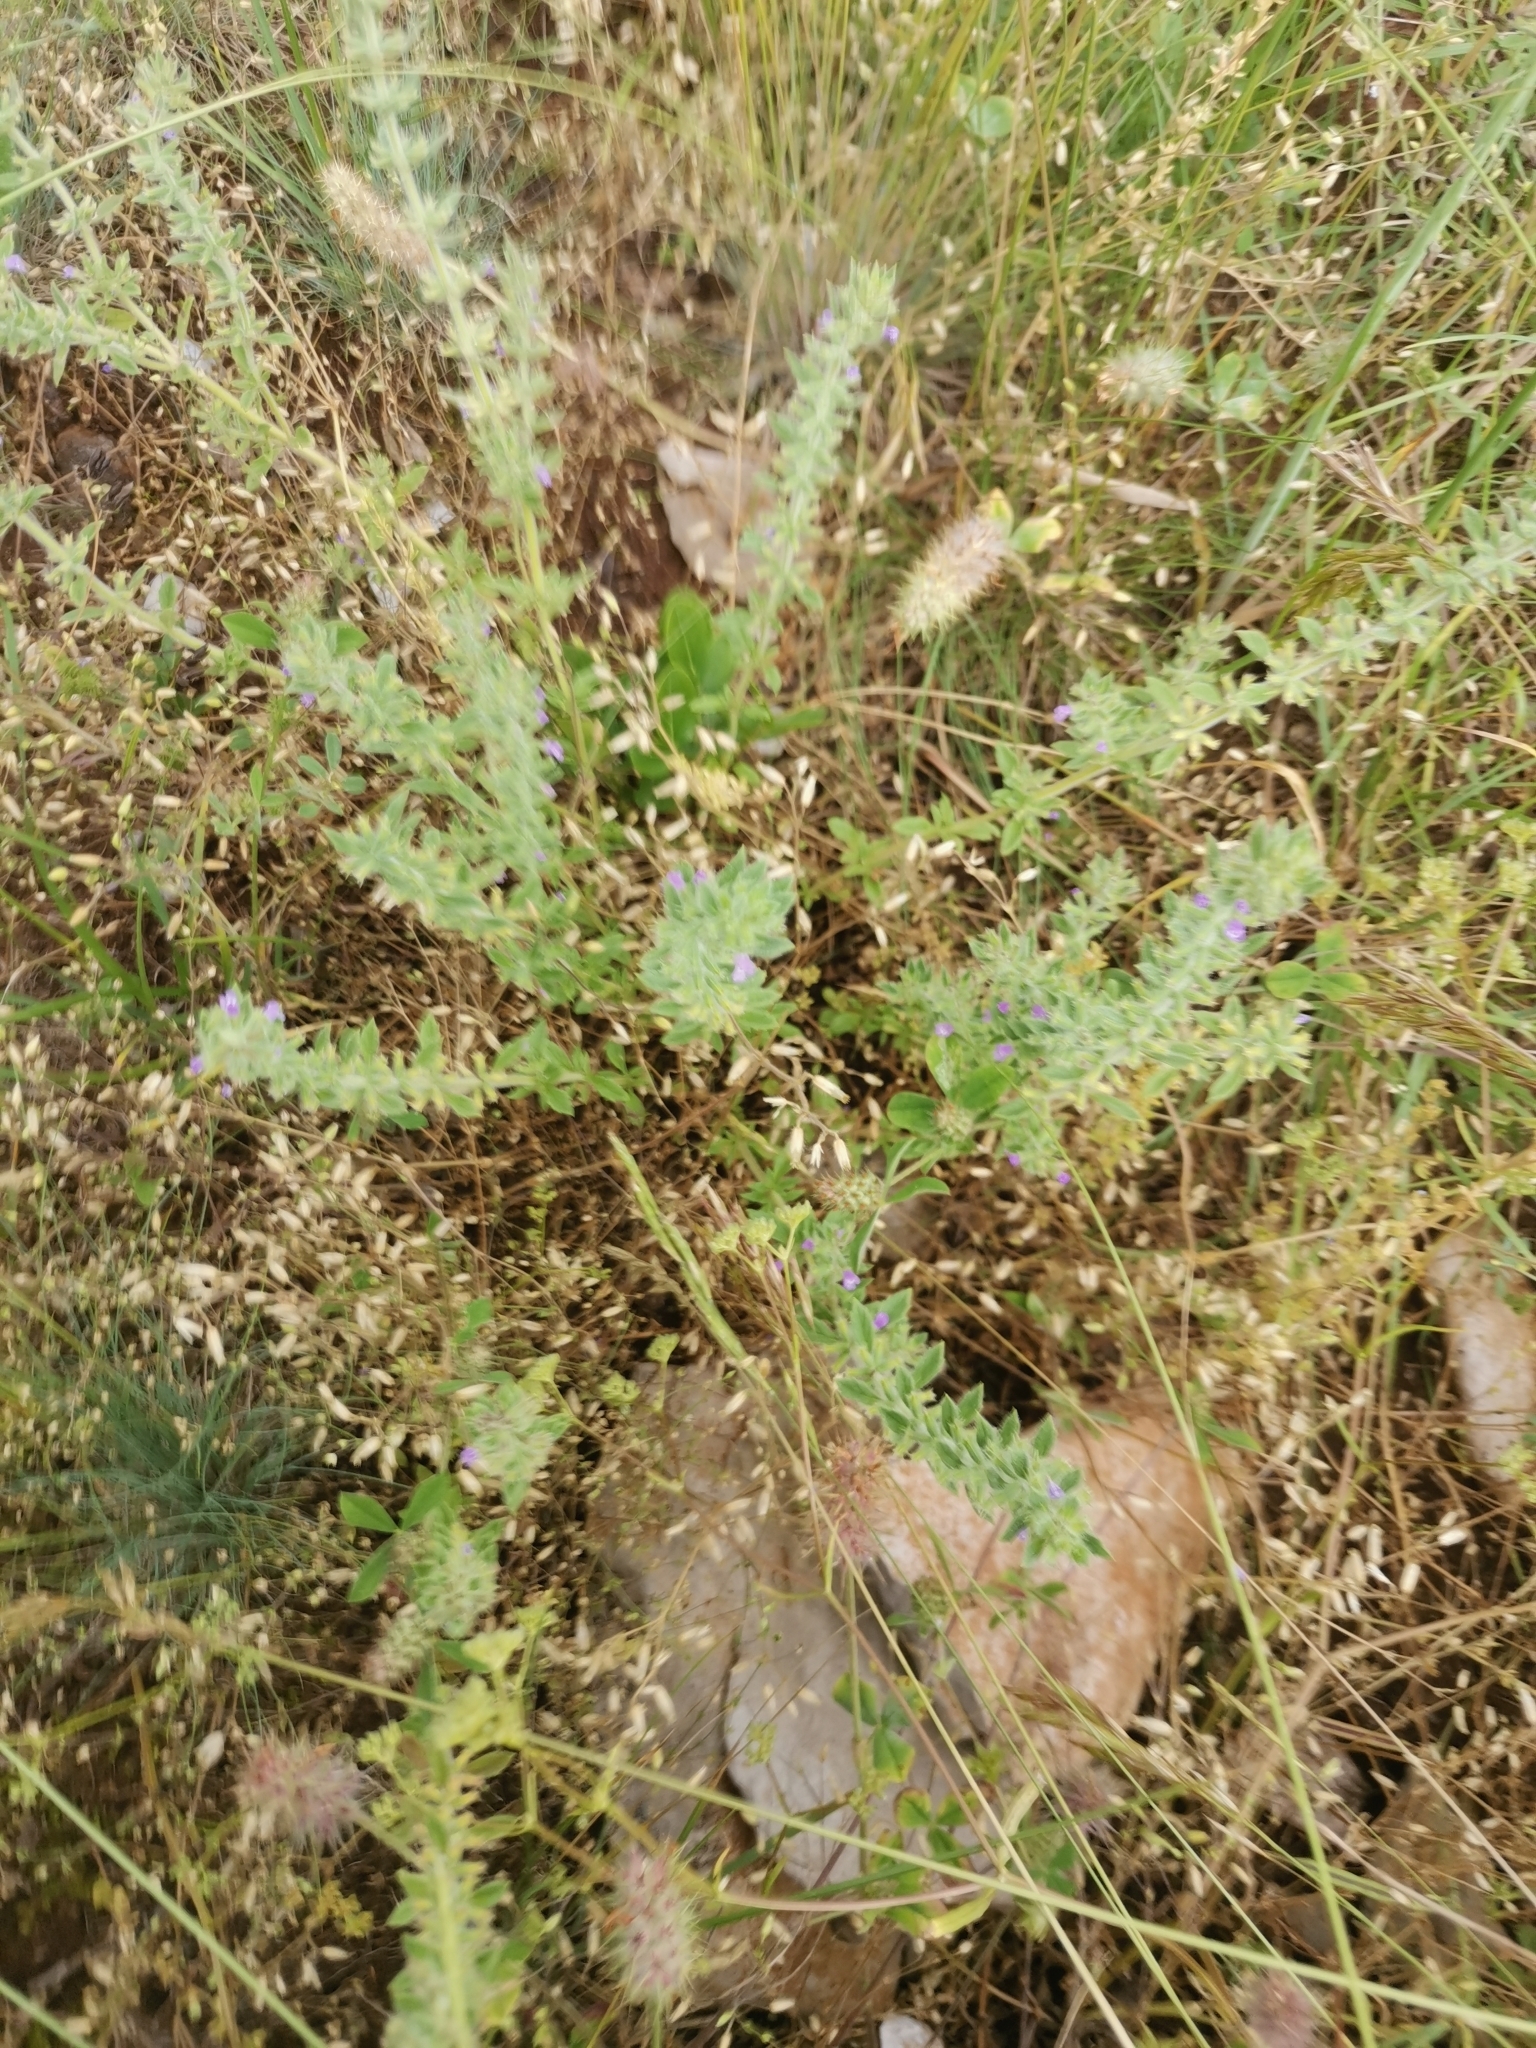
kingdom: Plantae
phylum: Tracheophyta
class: Magnoliopsida
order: Lamiales
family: Lamiaceae
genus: Clinopodium
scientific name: Clinopodium acinos
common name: Basil thyme
